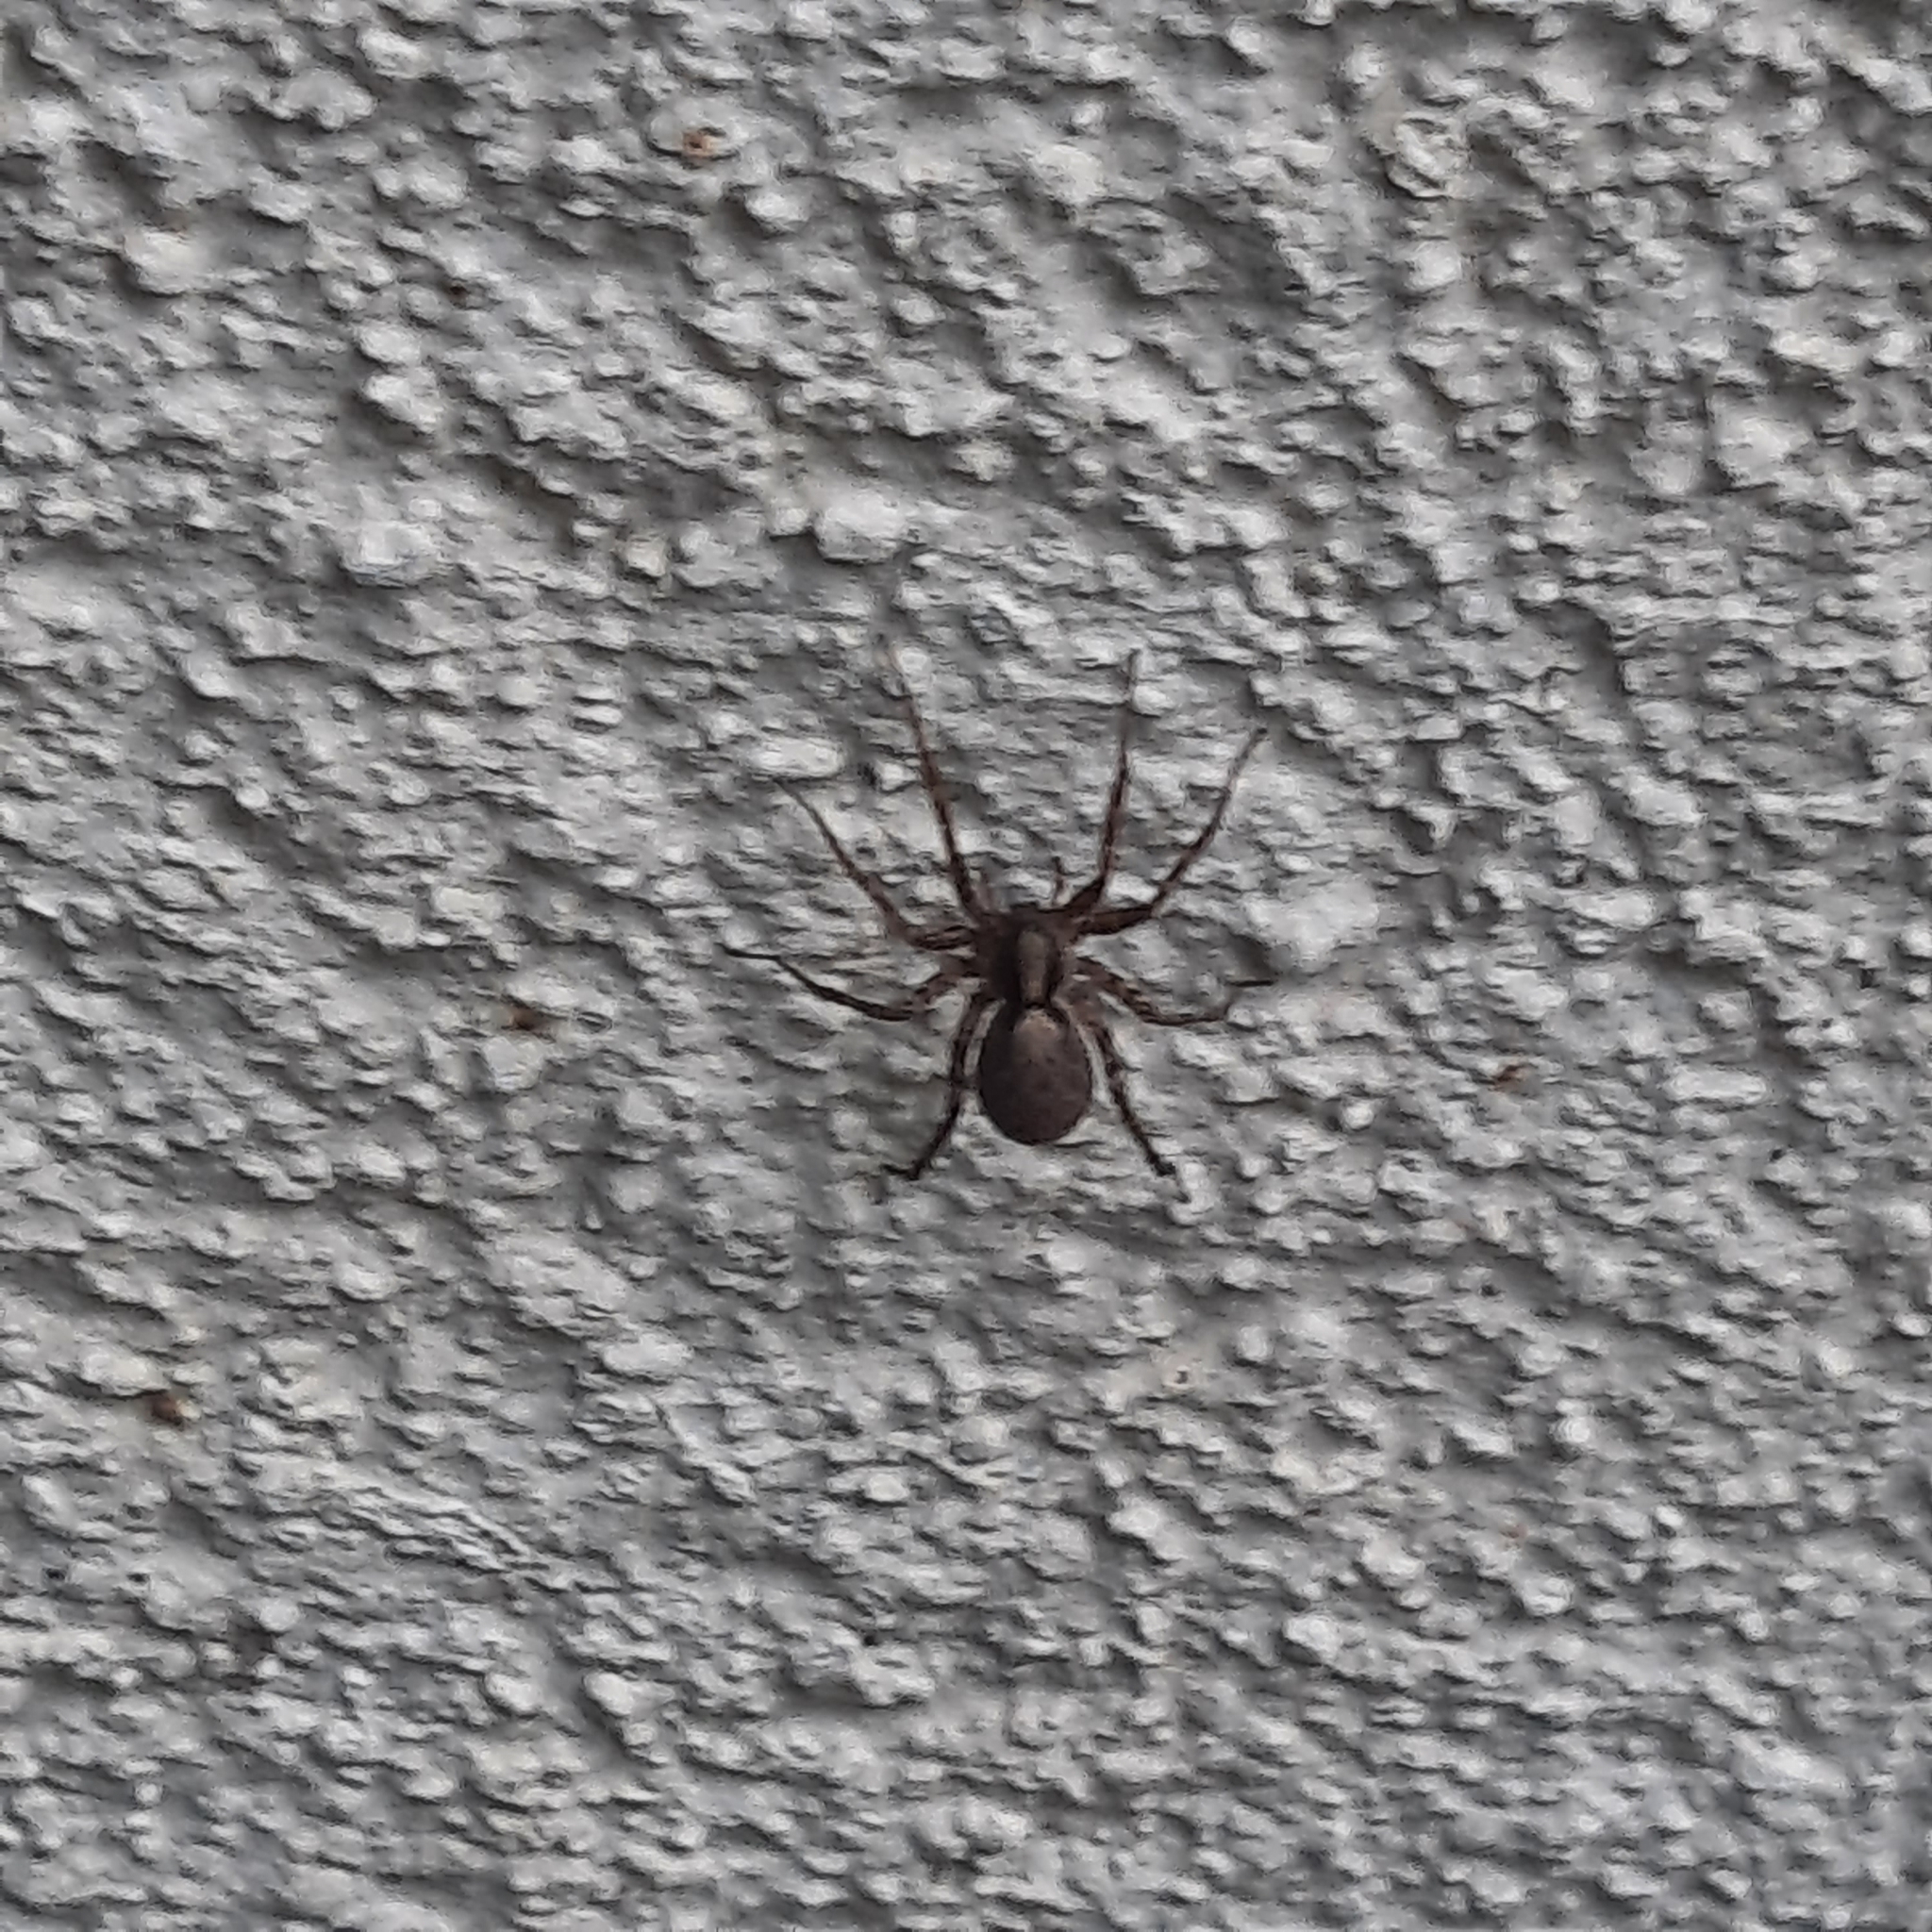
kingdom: Animalia
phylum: Arthropoda
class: Arachnida
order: Araneae
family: Lycosidae
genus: Pardosa
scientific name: Pardosa
